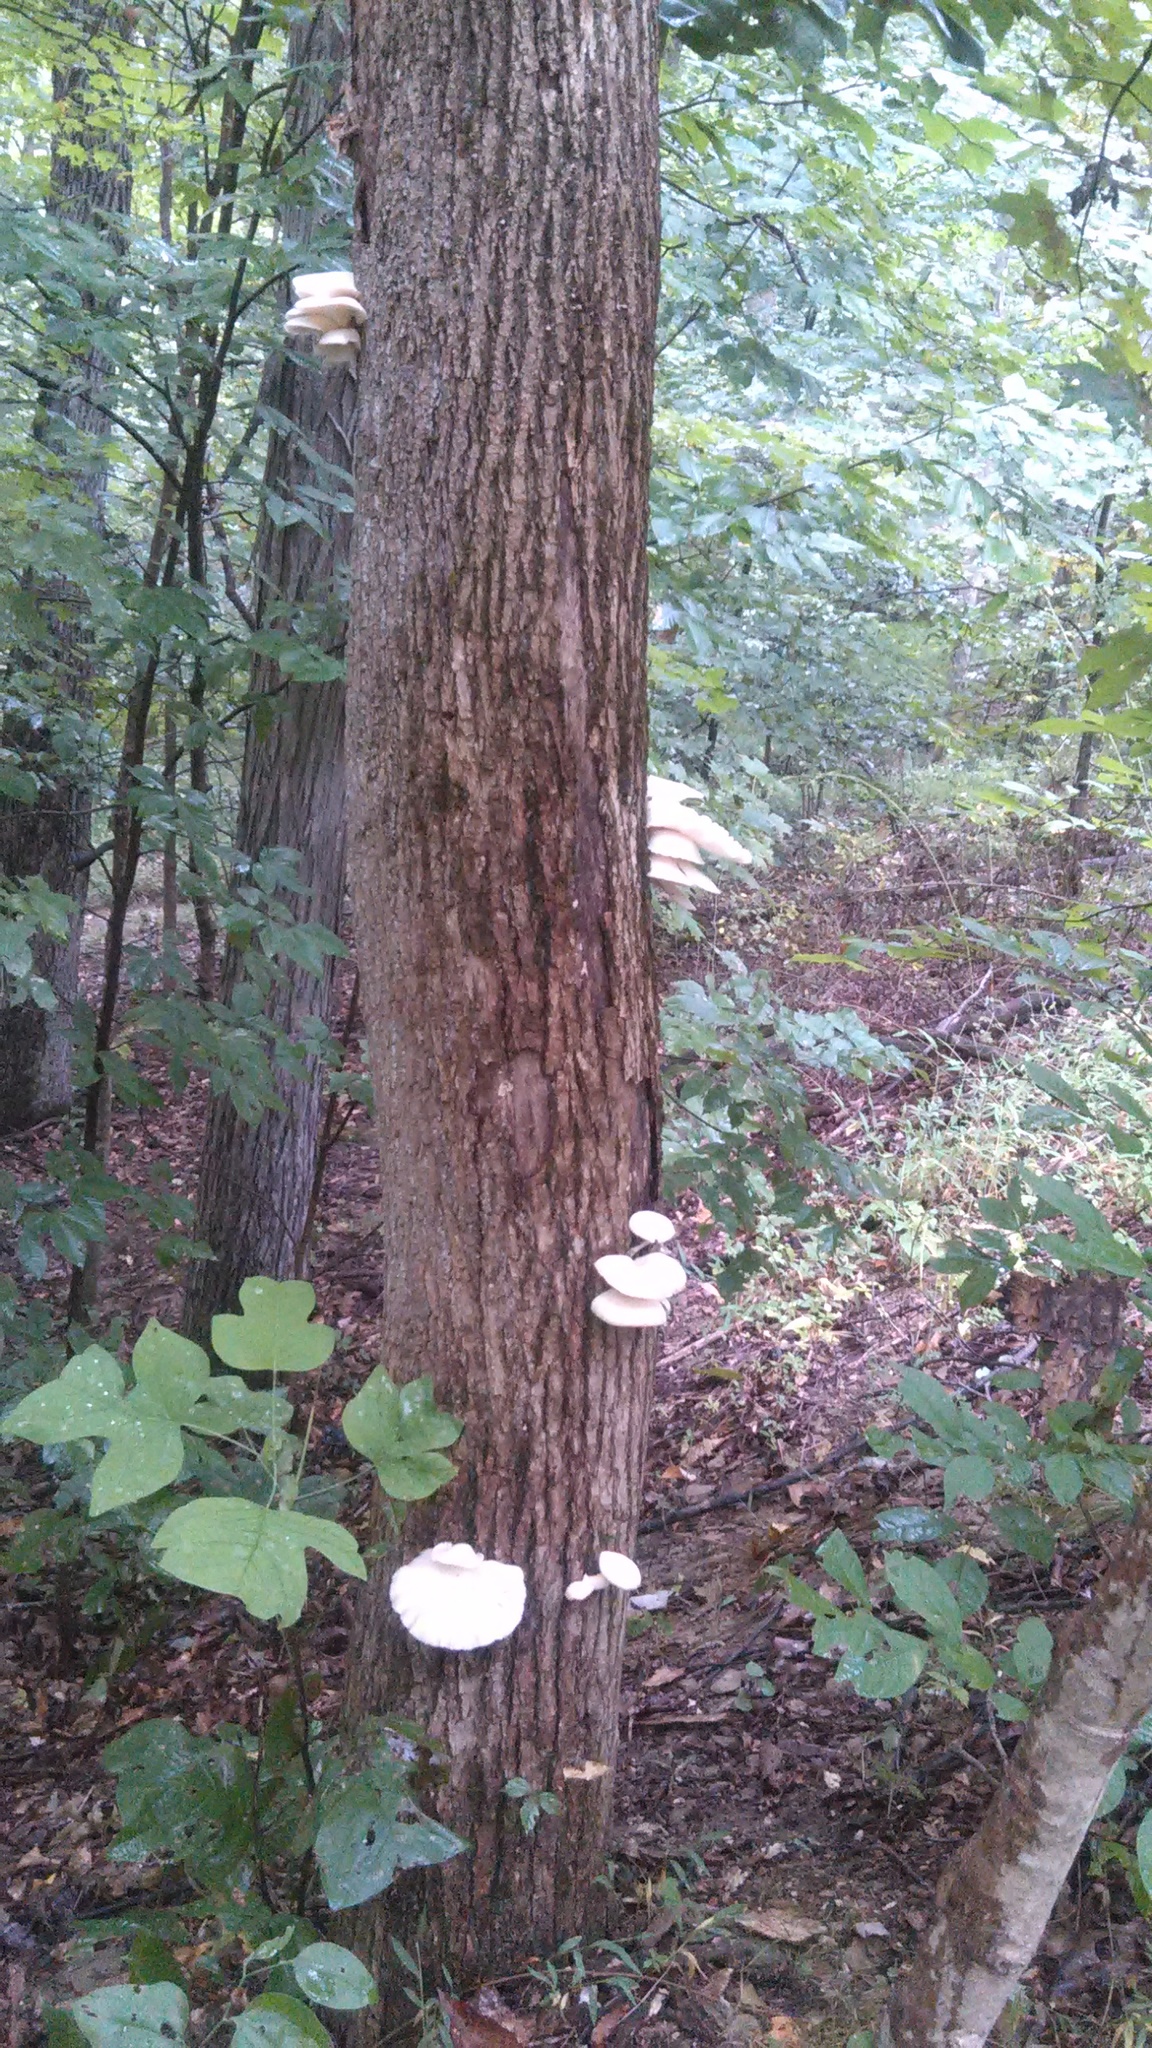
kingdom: Fungi
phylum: Basidiomycota
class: Agaricomycetes
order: Agaricales
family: Pleurotaceae
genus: Pleurotus
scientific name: Pleurotus populinus
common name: Aspen oyster mushroom
